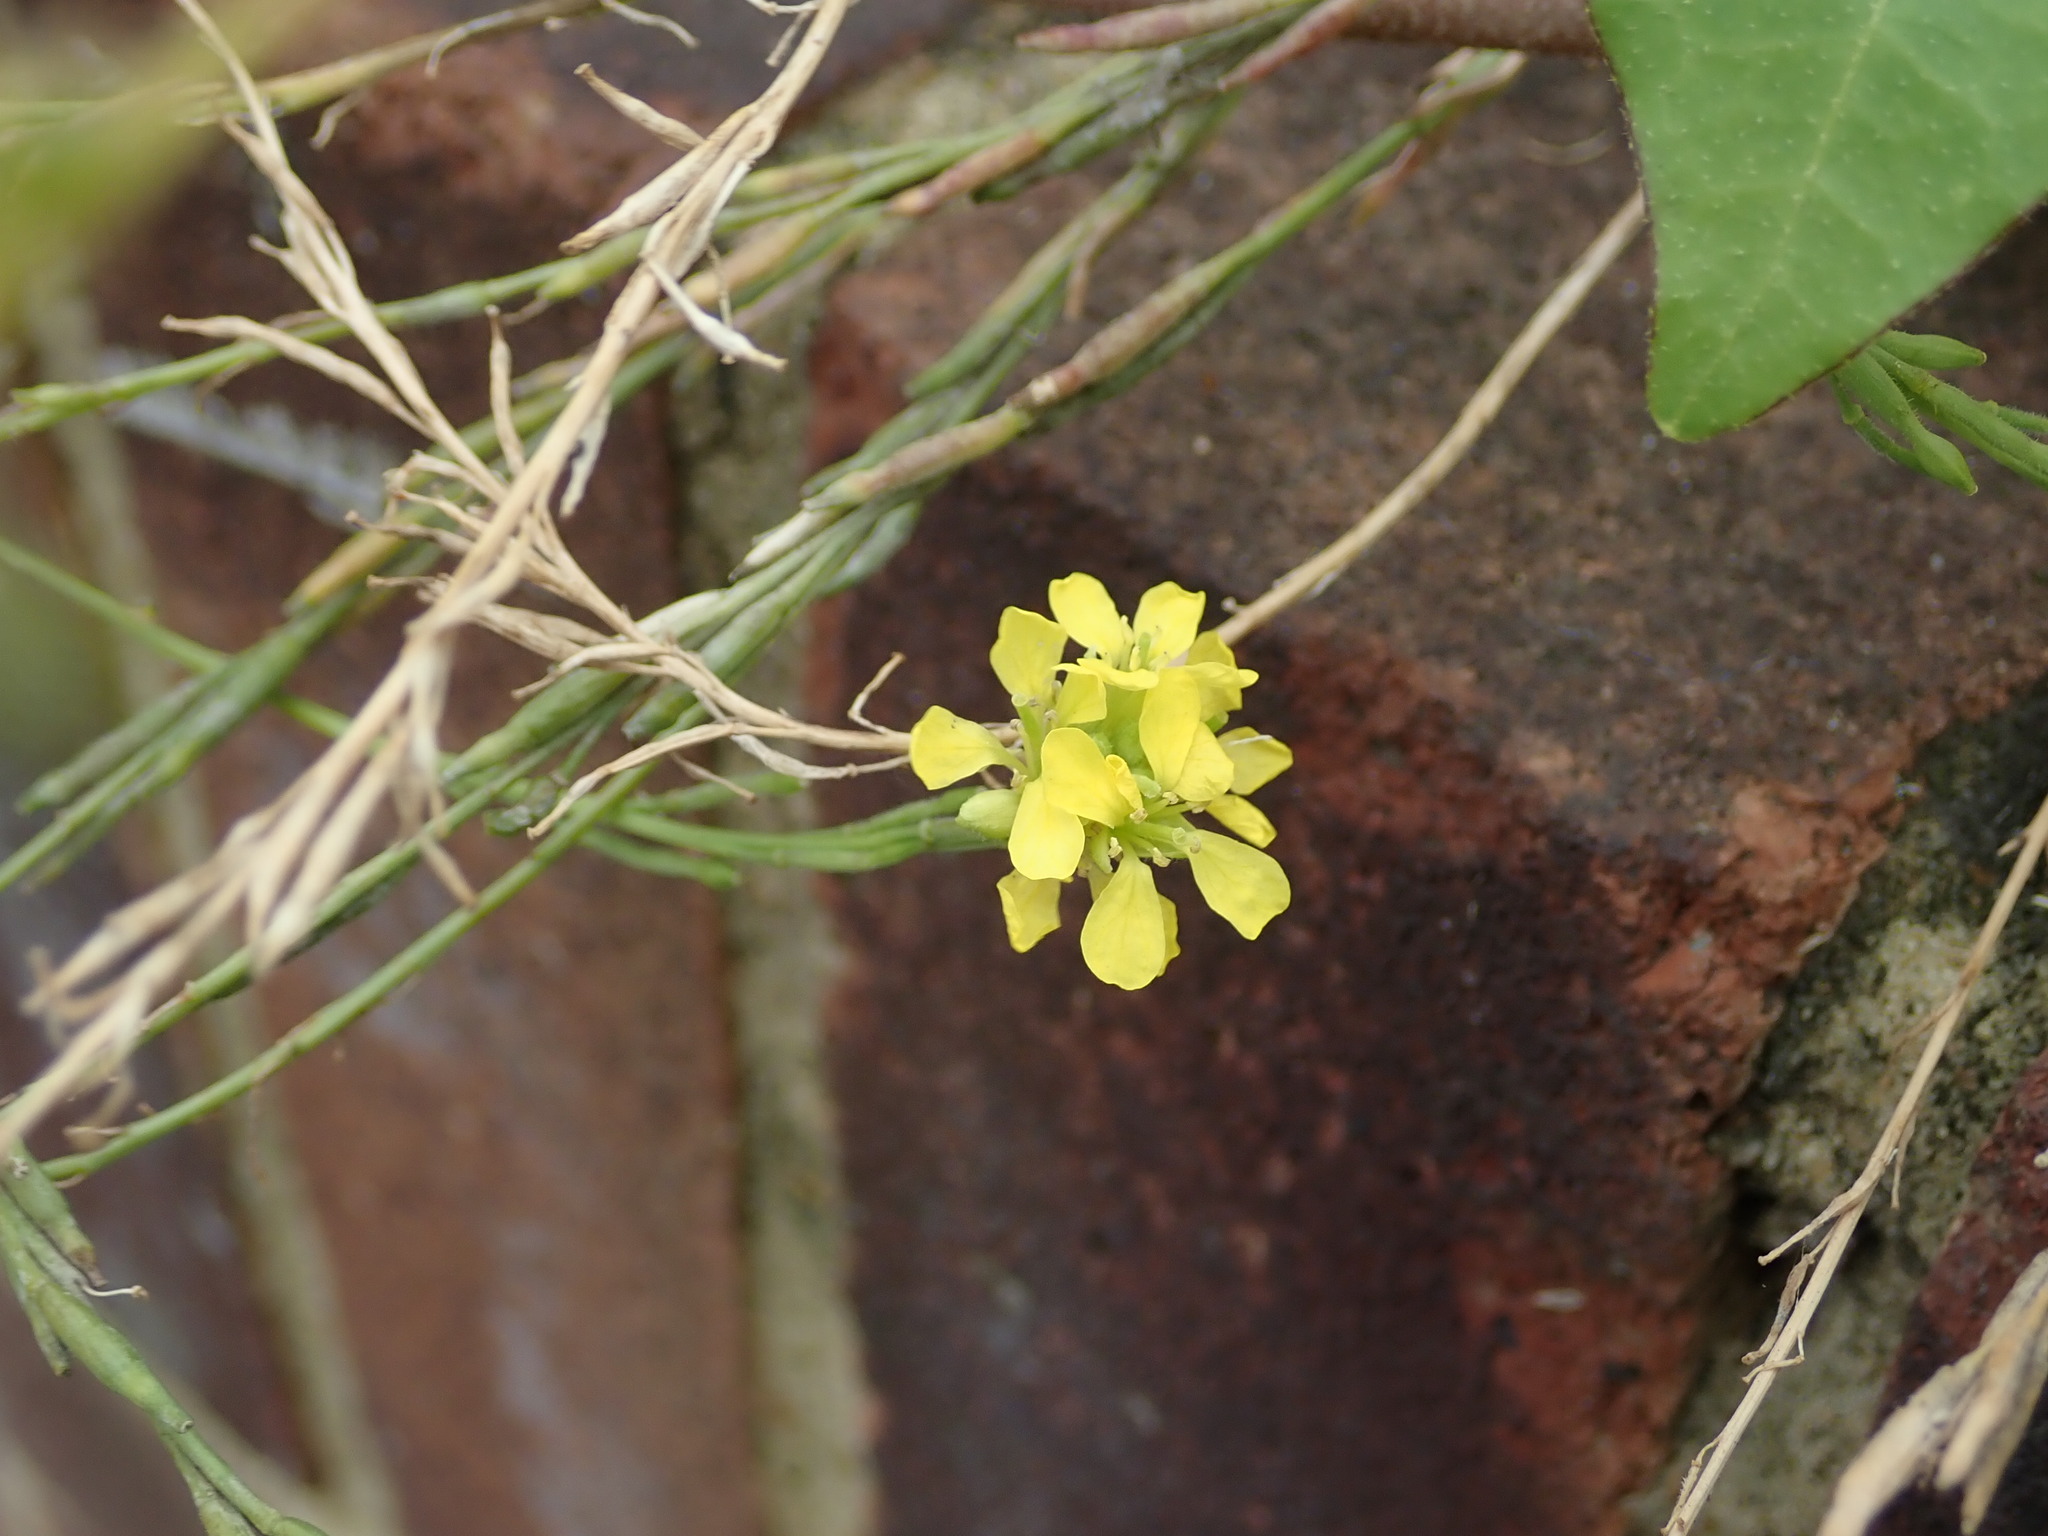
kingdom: Plantae
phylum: Tracheophyta
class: Magnoliopsida
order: Brassicales
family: Brassicaceae
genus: Hirschfeldia
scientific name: Hirschfeldia incana
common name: Hoary mustard
